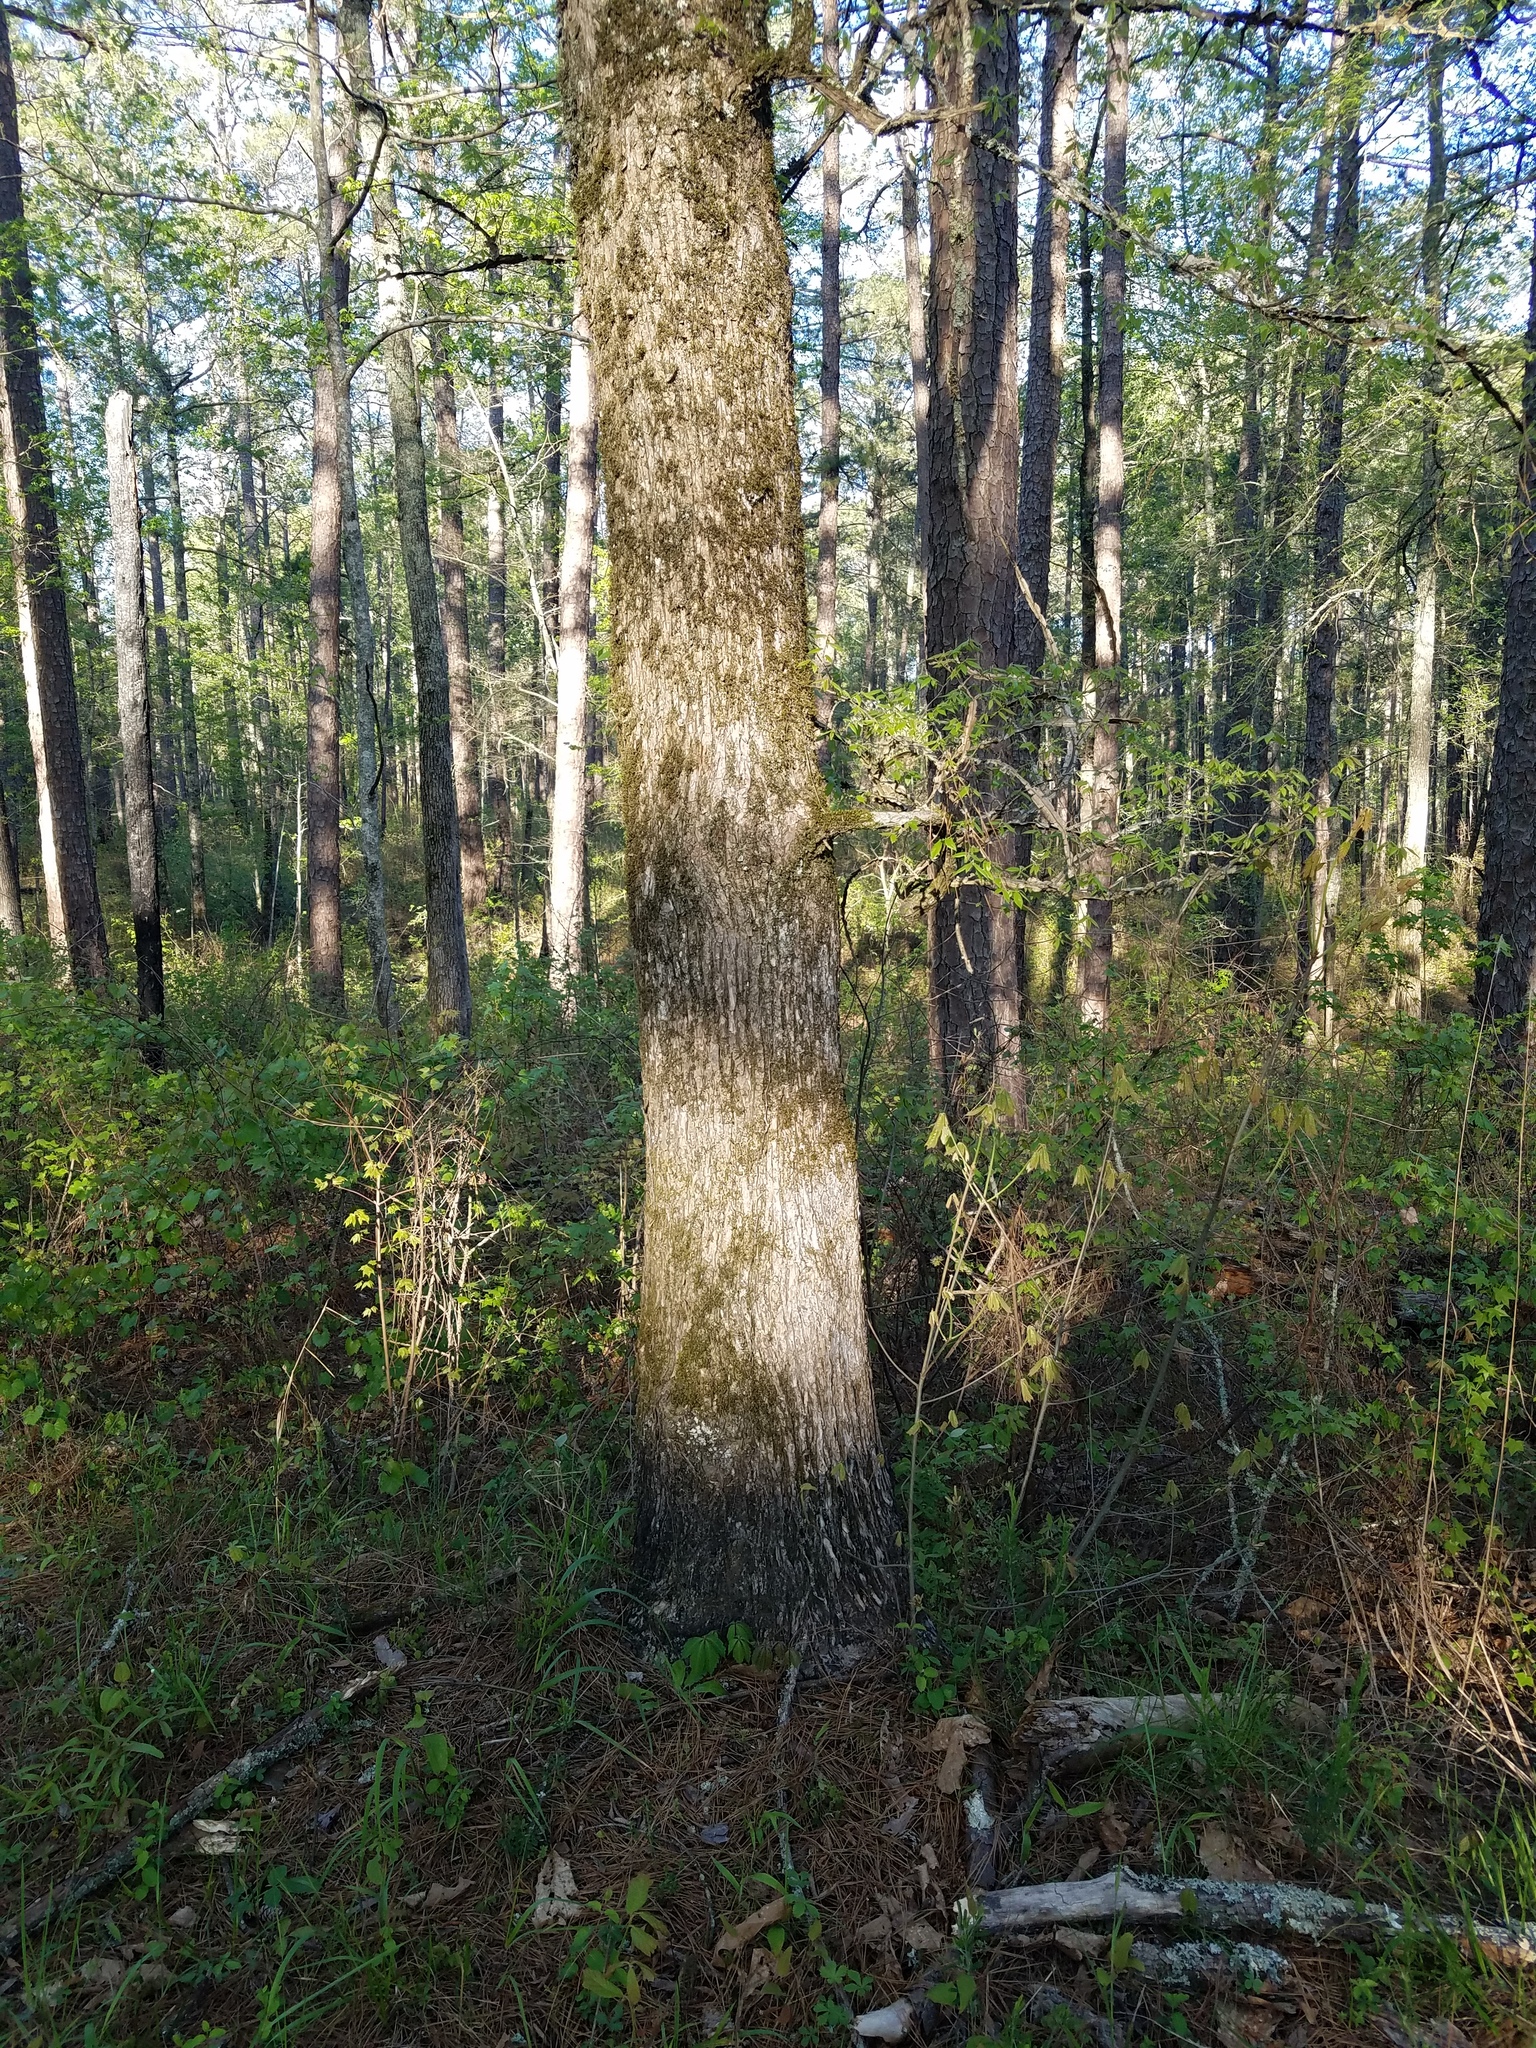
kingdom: Plantae
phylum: Tracheophyta
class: Magnoliopsida
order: Rosales
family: Ulmaceae
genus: Ulmus
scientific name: Ulmus alata
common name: Winged elm
